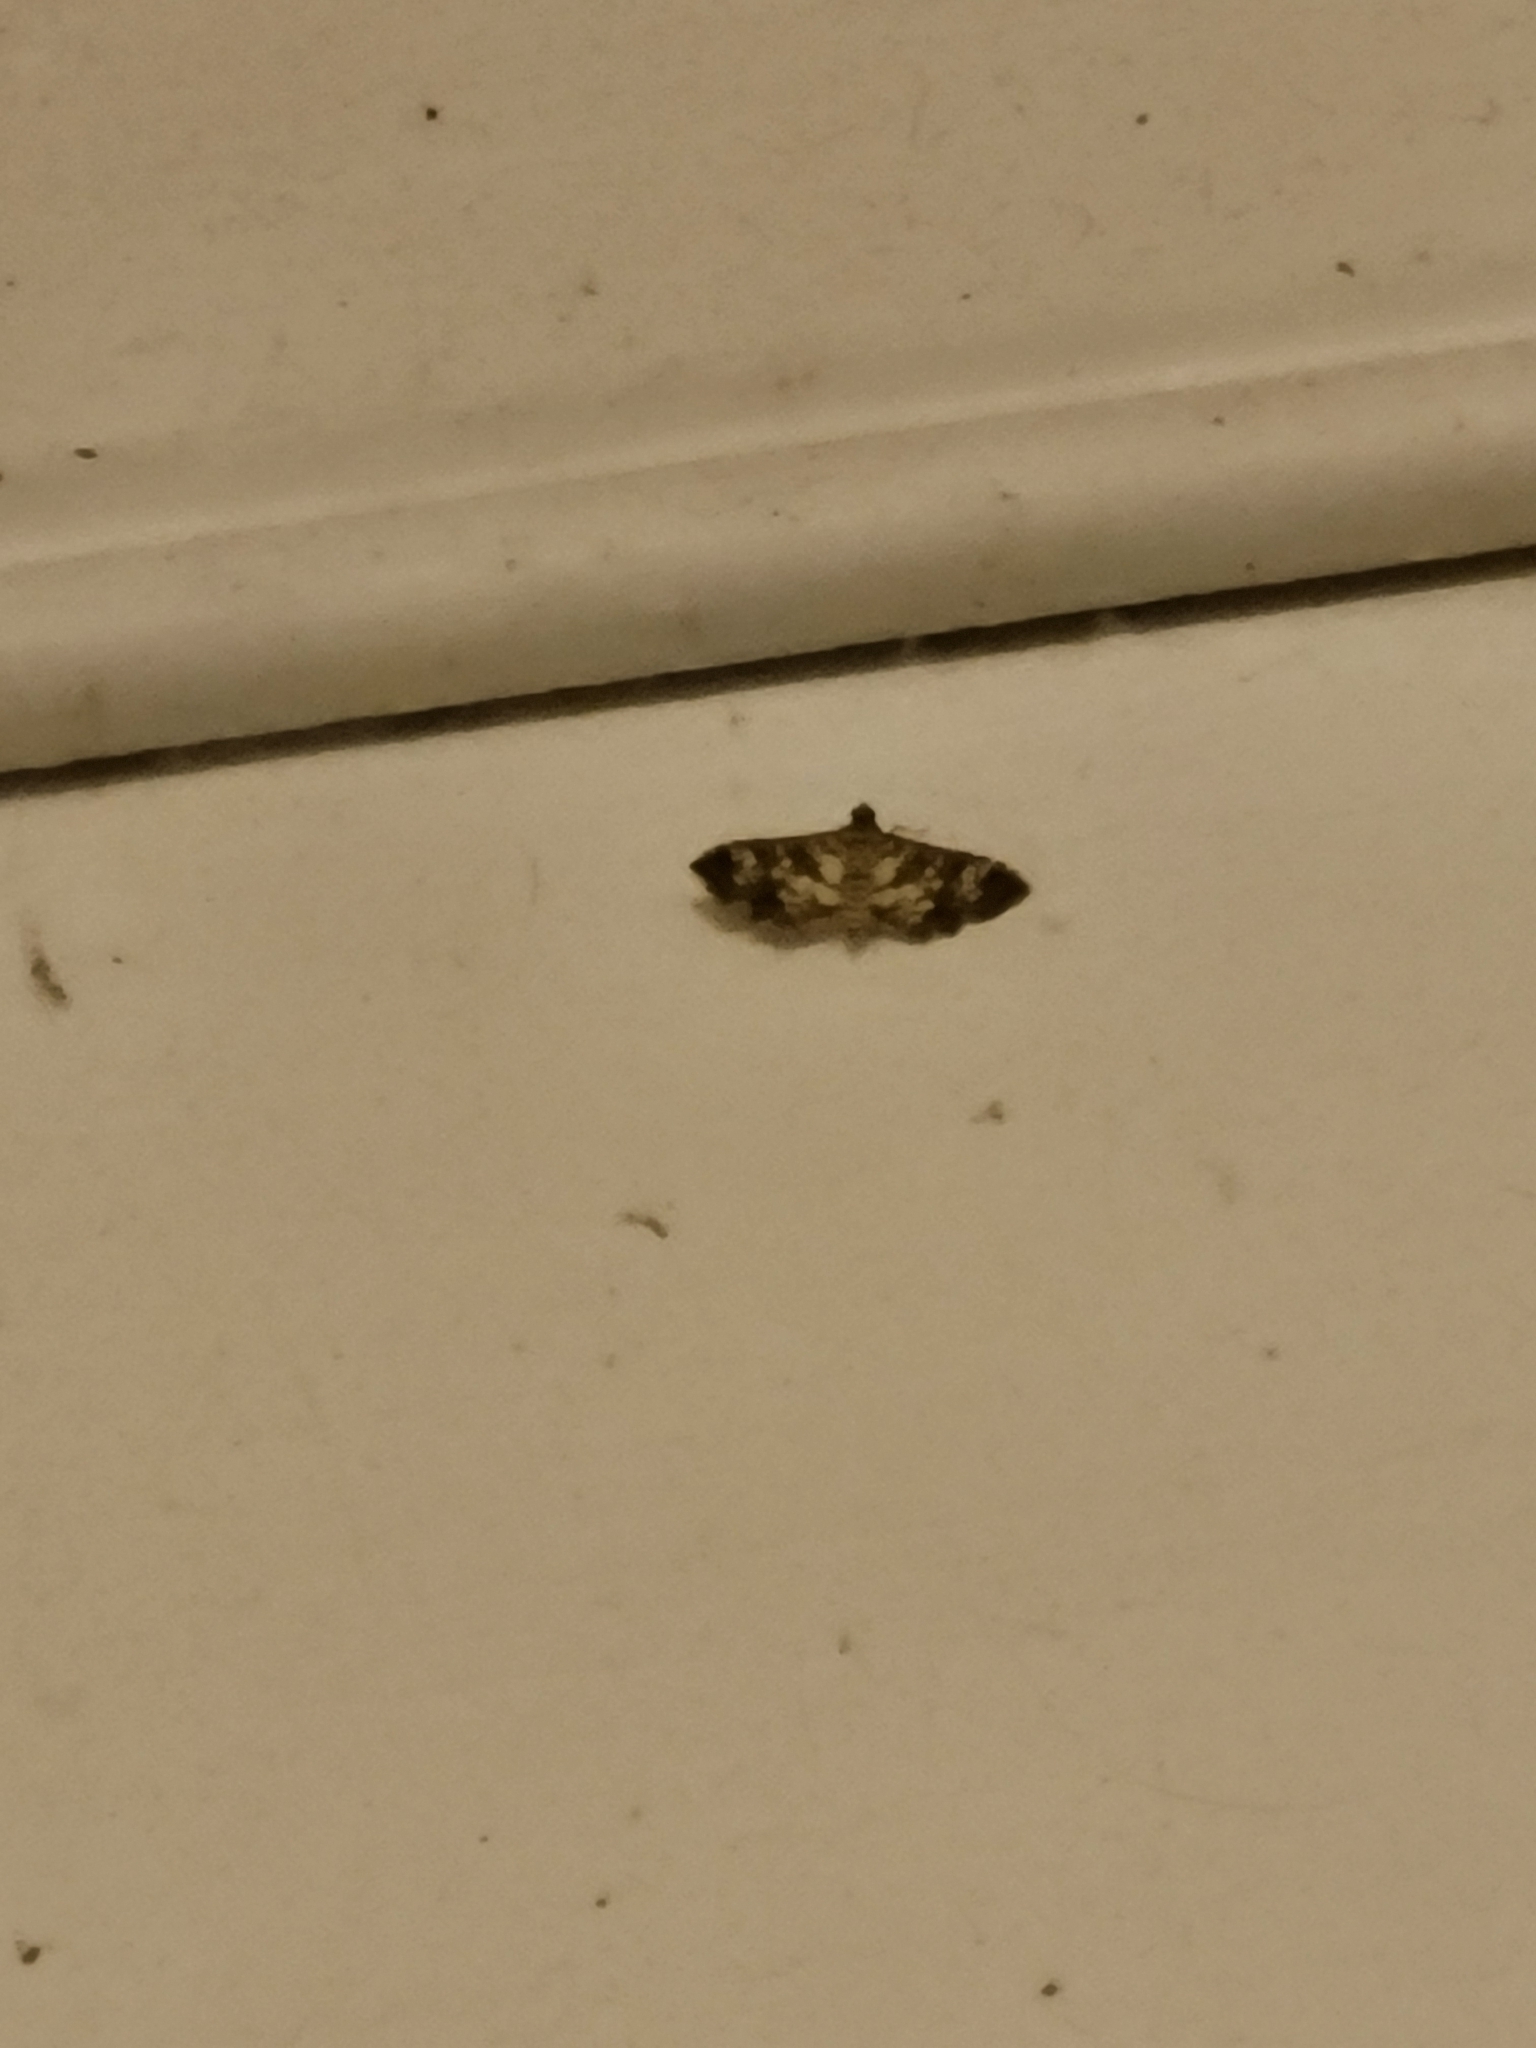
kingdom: Animalia
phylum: Arthropoda
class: Insecta
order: Lepidoptera
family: Crambidae
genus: Samea
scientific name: Samea ecclesialis
